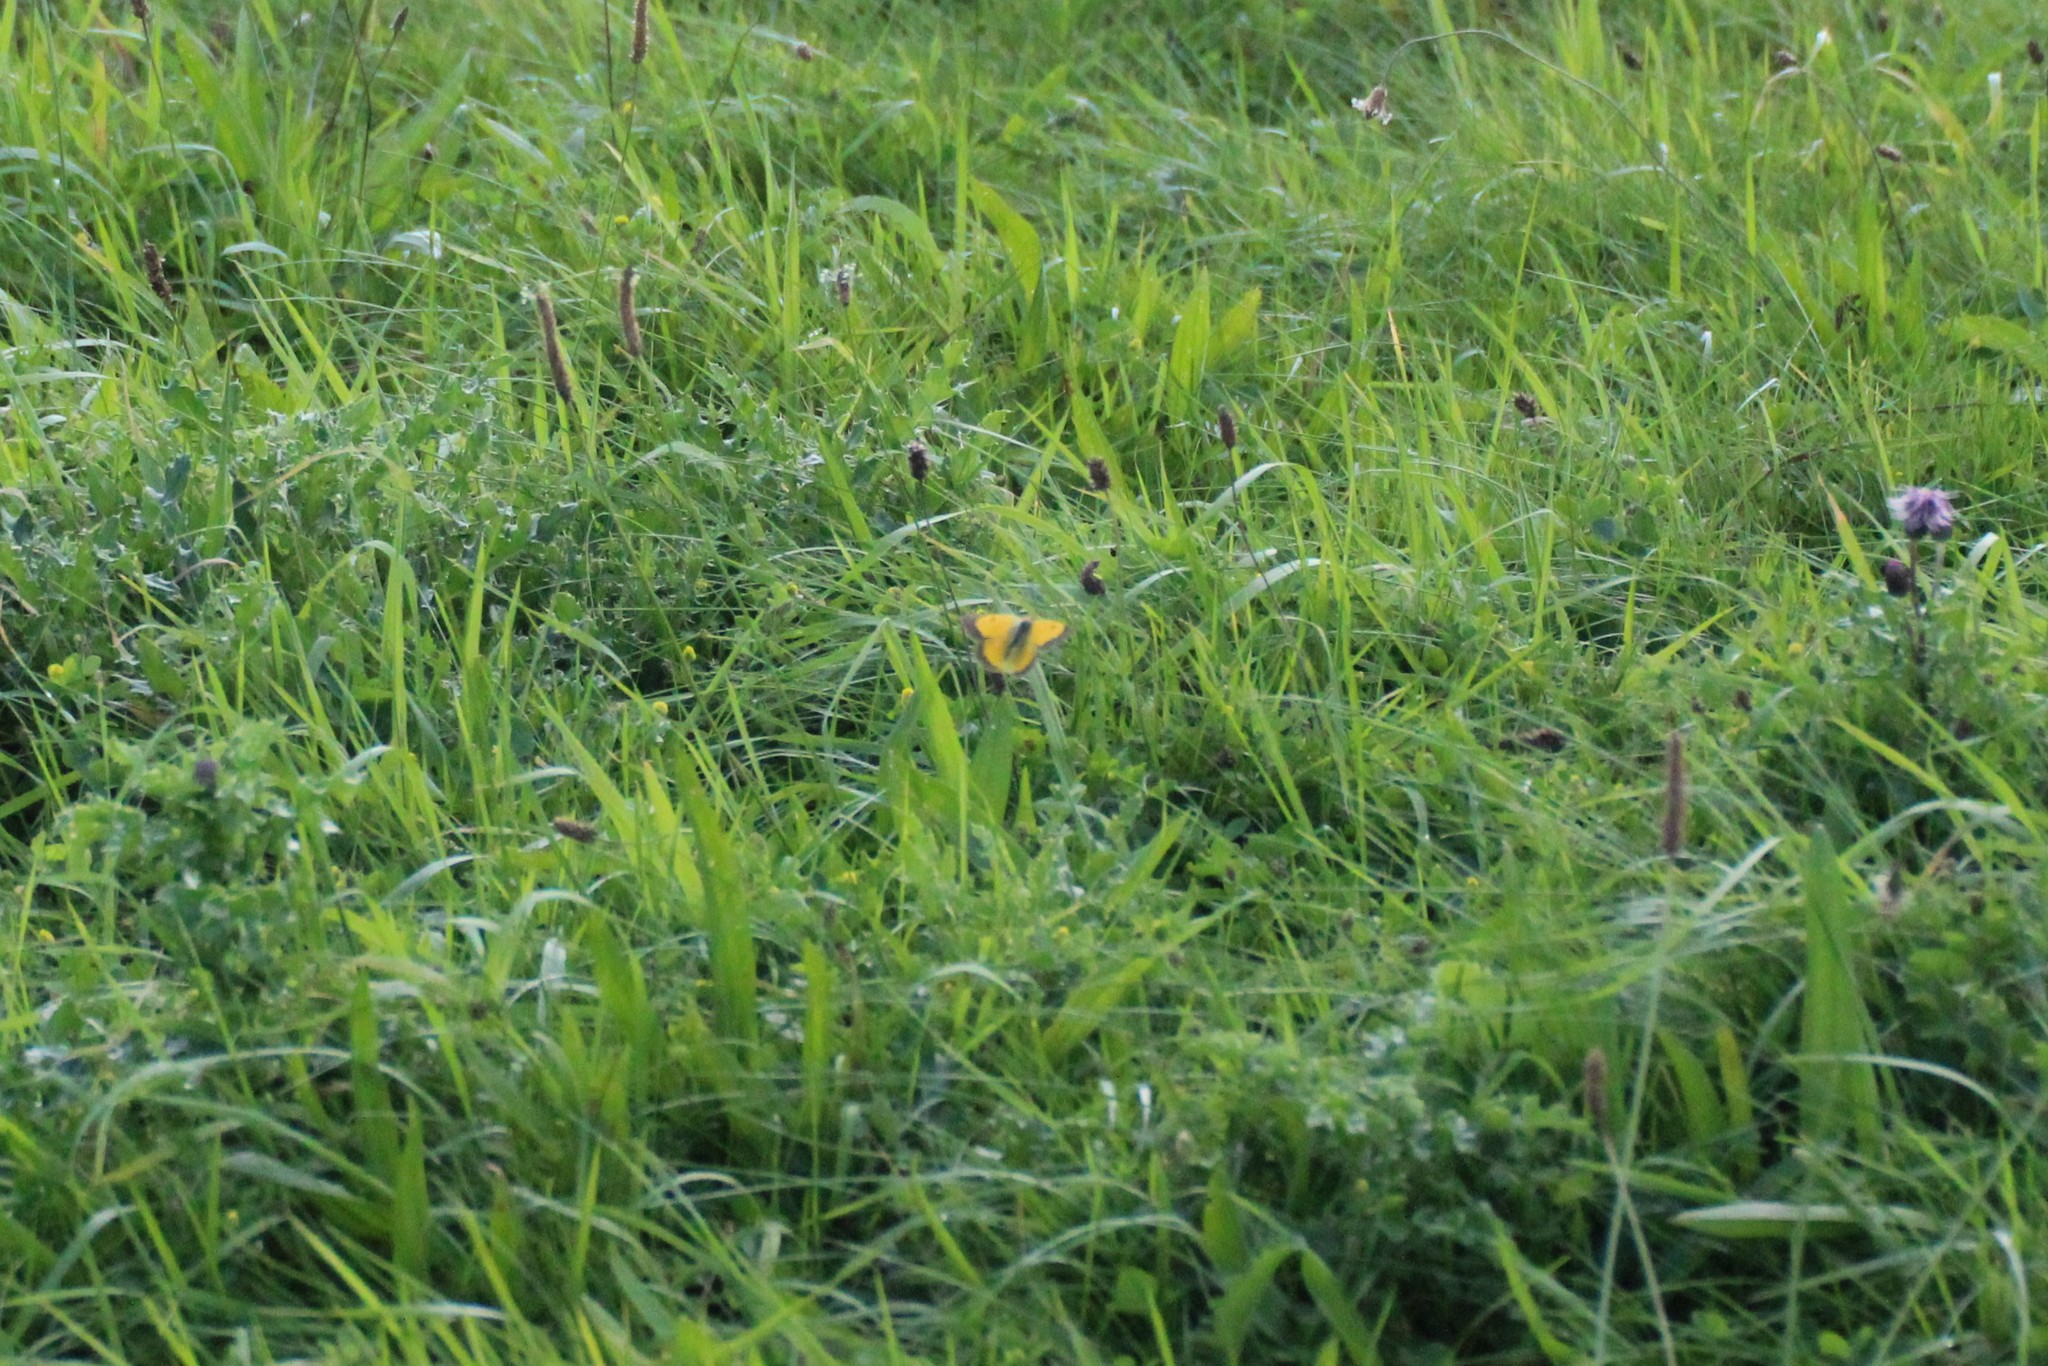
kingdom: Animalia
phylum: Arthropoda
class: Insecta
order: Lepidoptera
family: Pieridae
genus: Colias
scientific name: Colias croceus
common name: Clouded yellow
